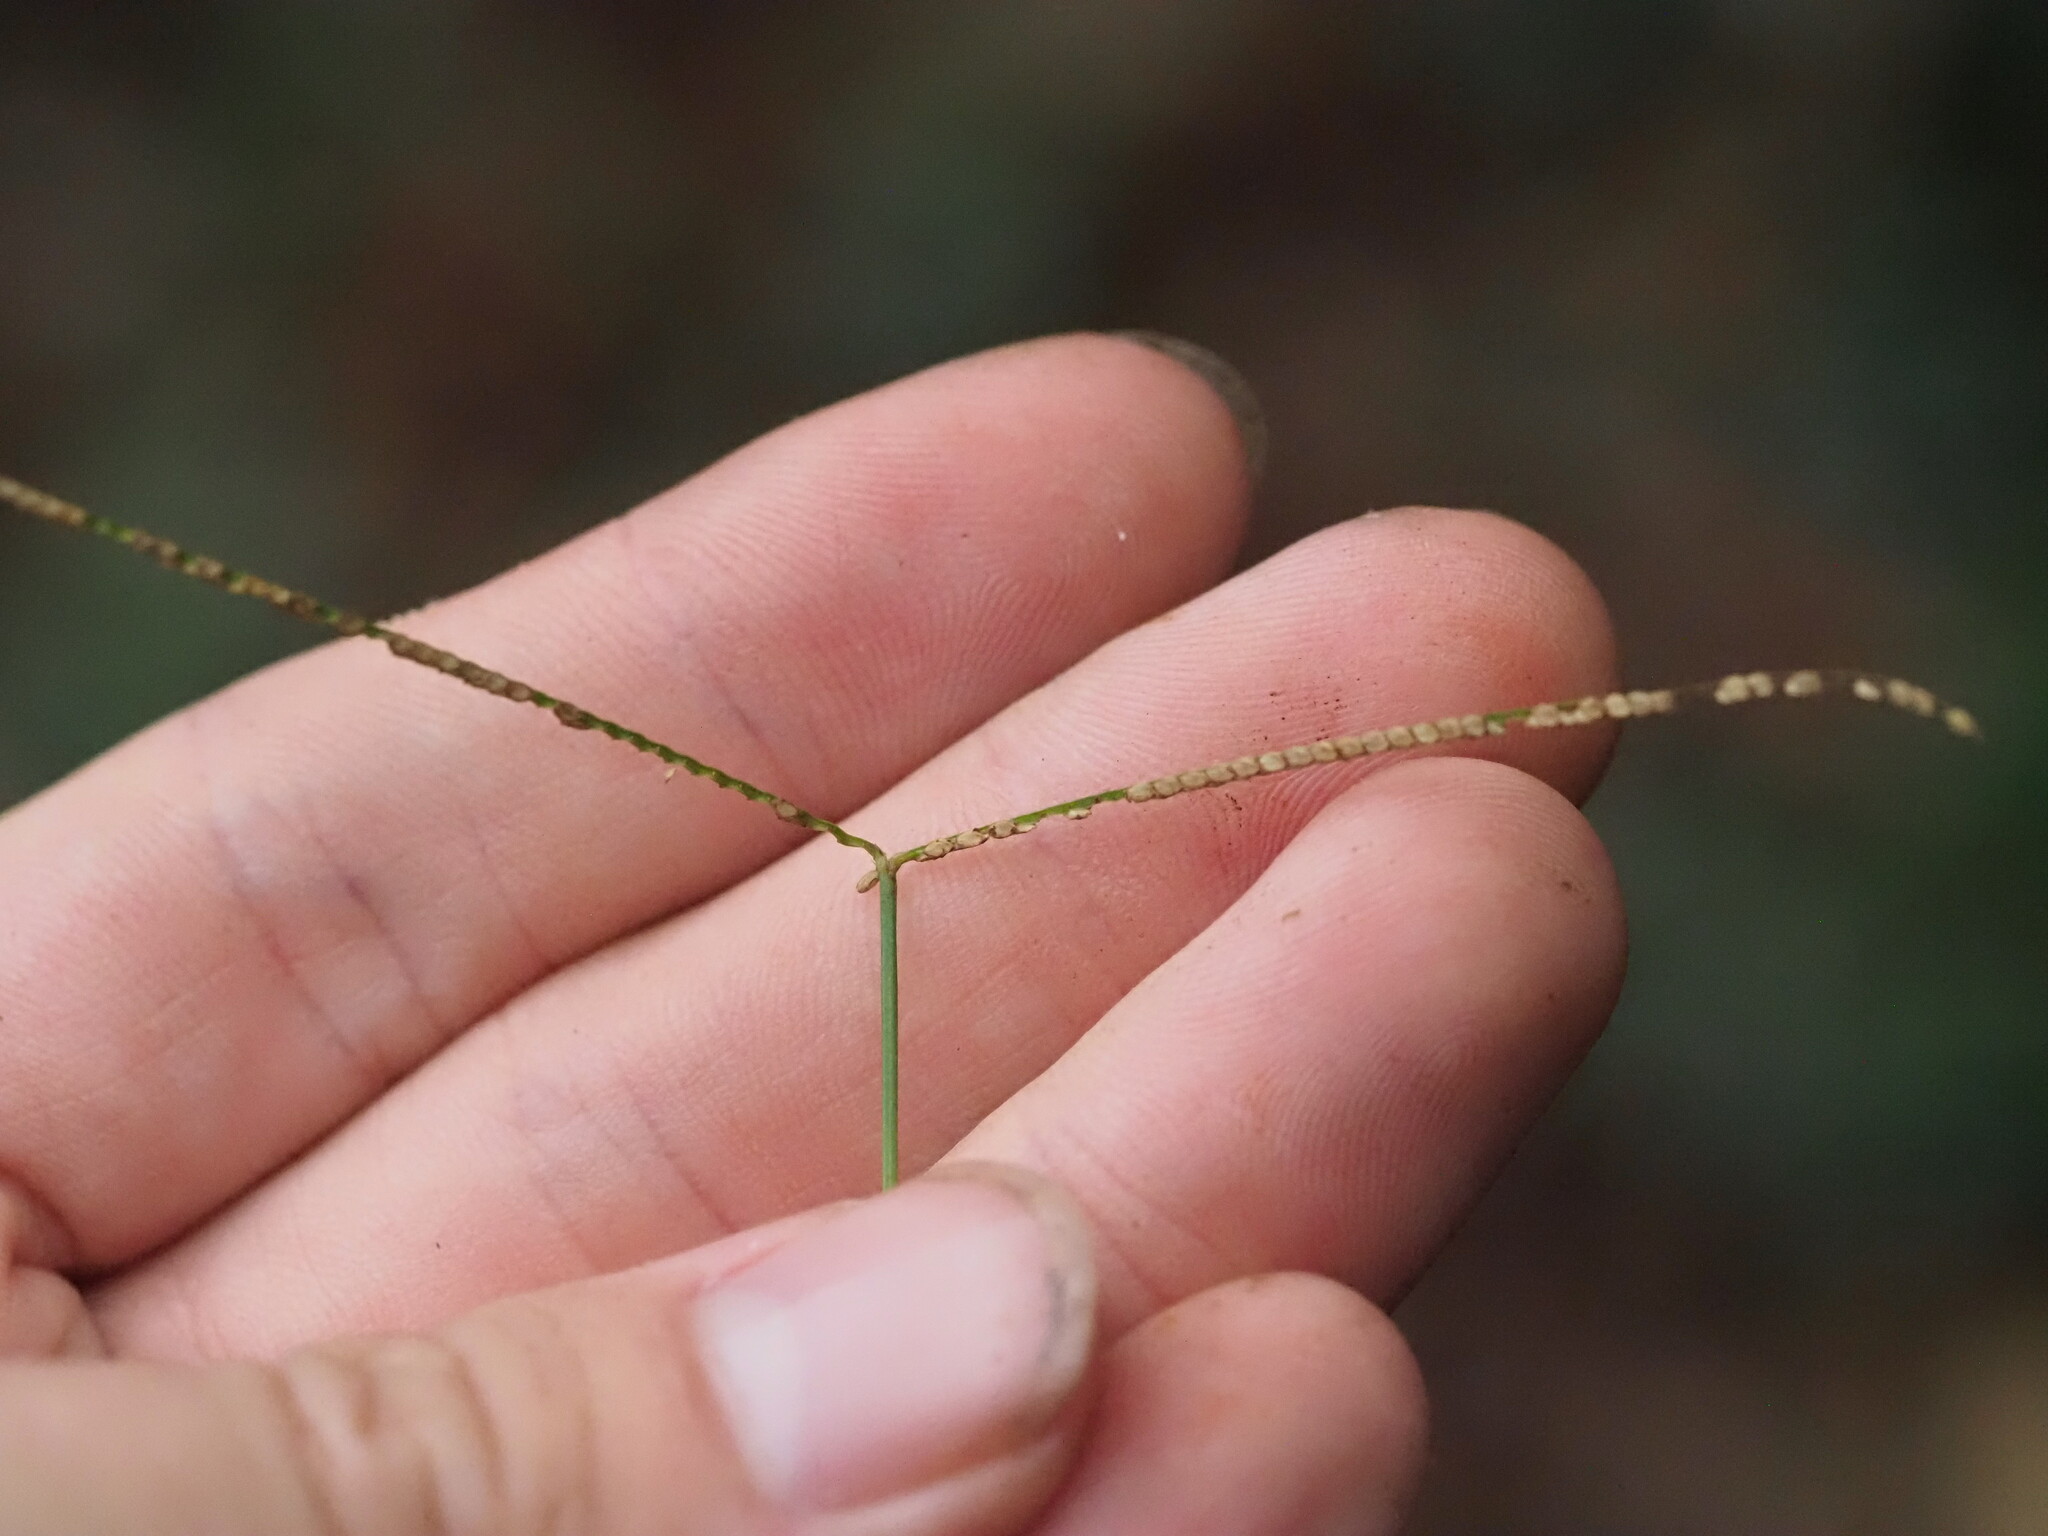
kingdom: Plantae
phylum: Tracheophyta
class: Liliopsida
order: Poales
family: Poaceae
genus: Paspalum
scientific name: Paspalum conjugatum
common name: Hilograss
